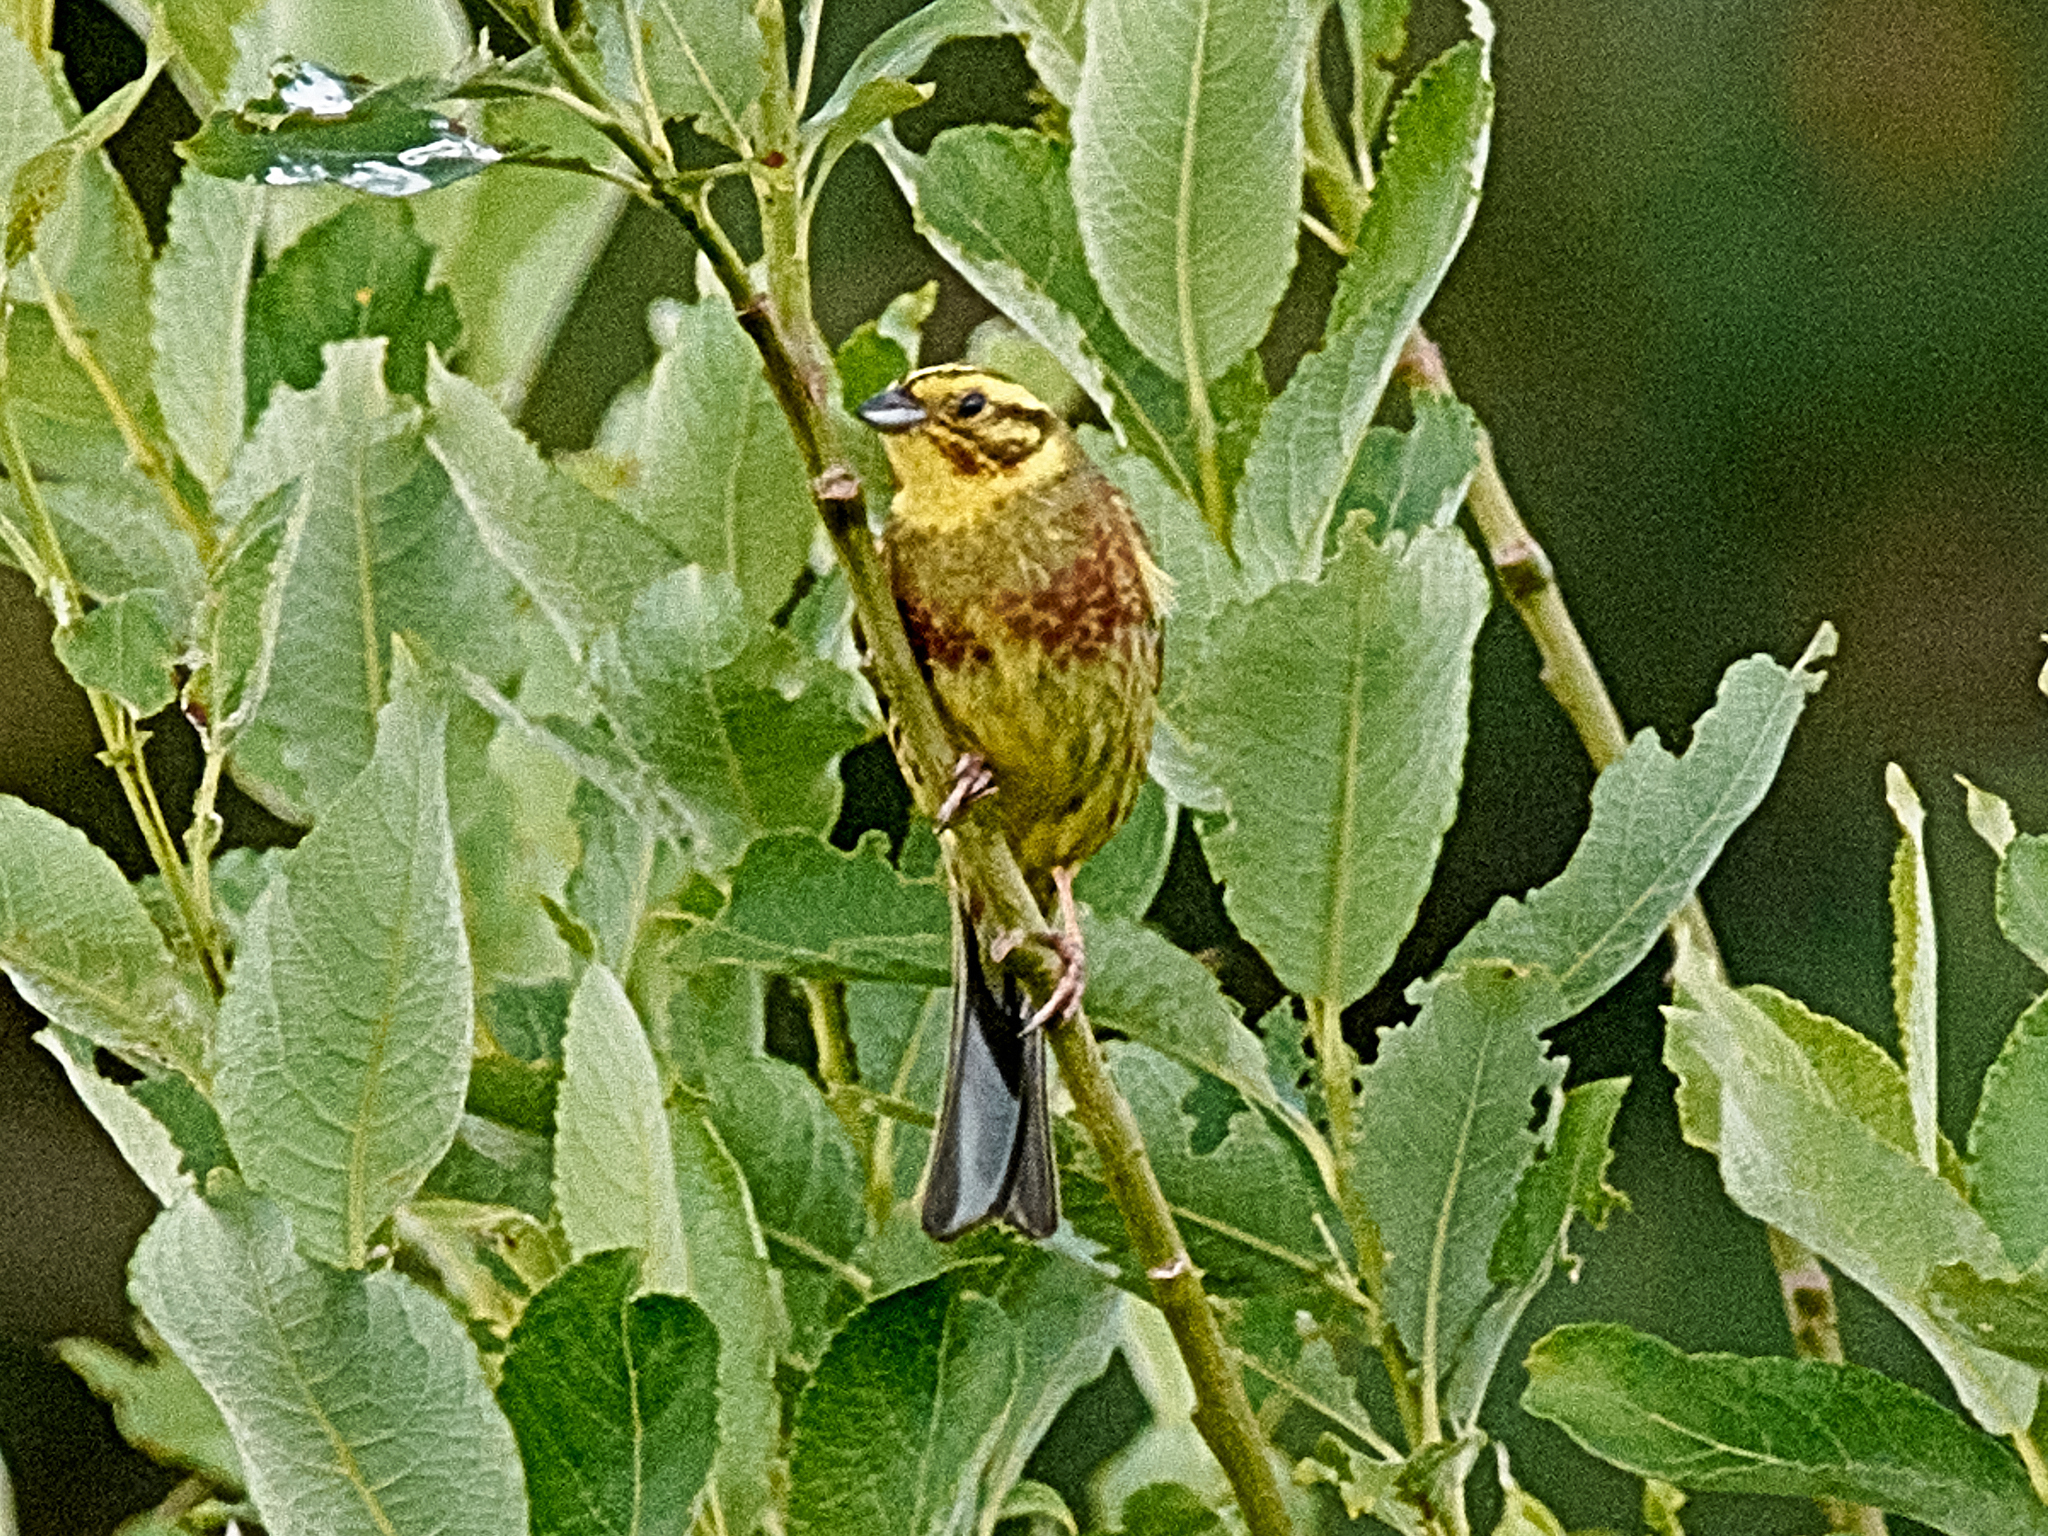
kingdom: Animalia
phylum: Chordata
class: Aves
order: Passeriformes
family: Emberizidae
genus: Emberiza
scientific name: Emberiza citrinella
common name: Yellowhammer
